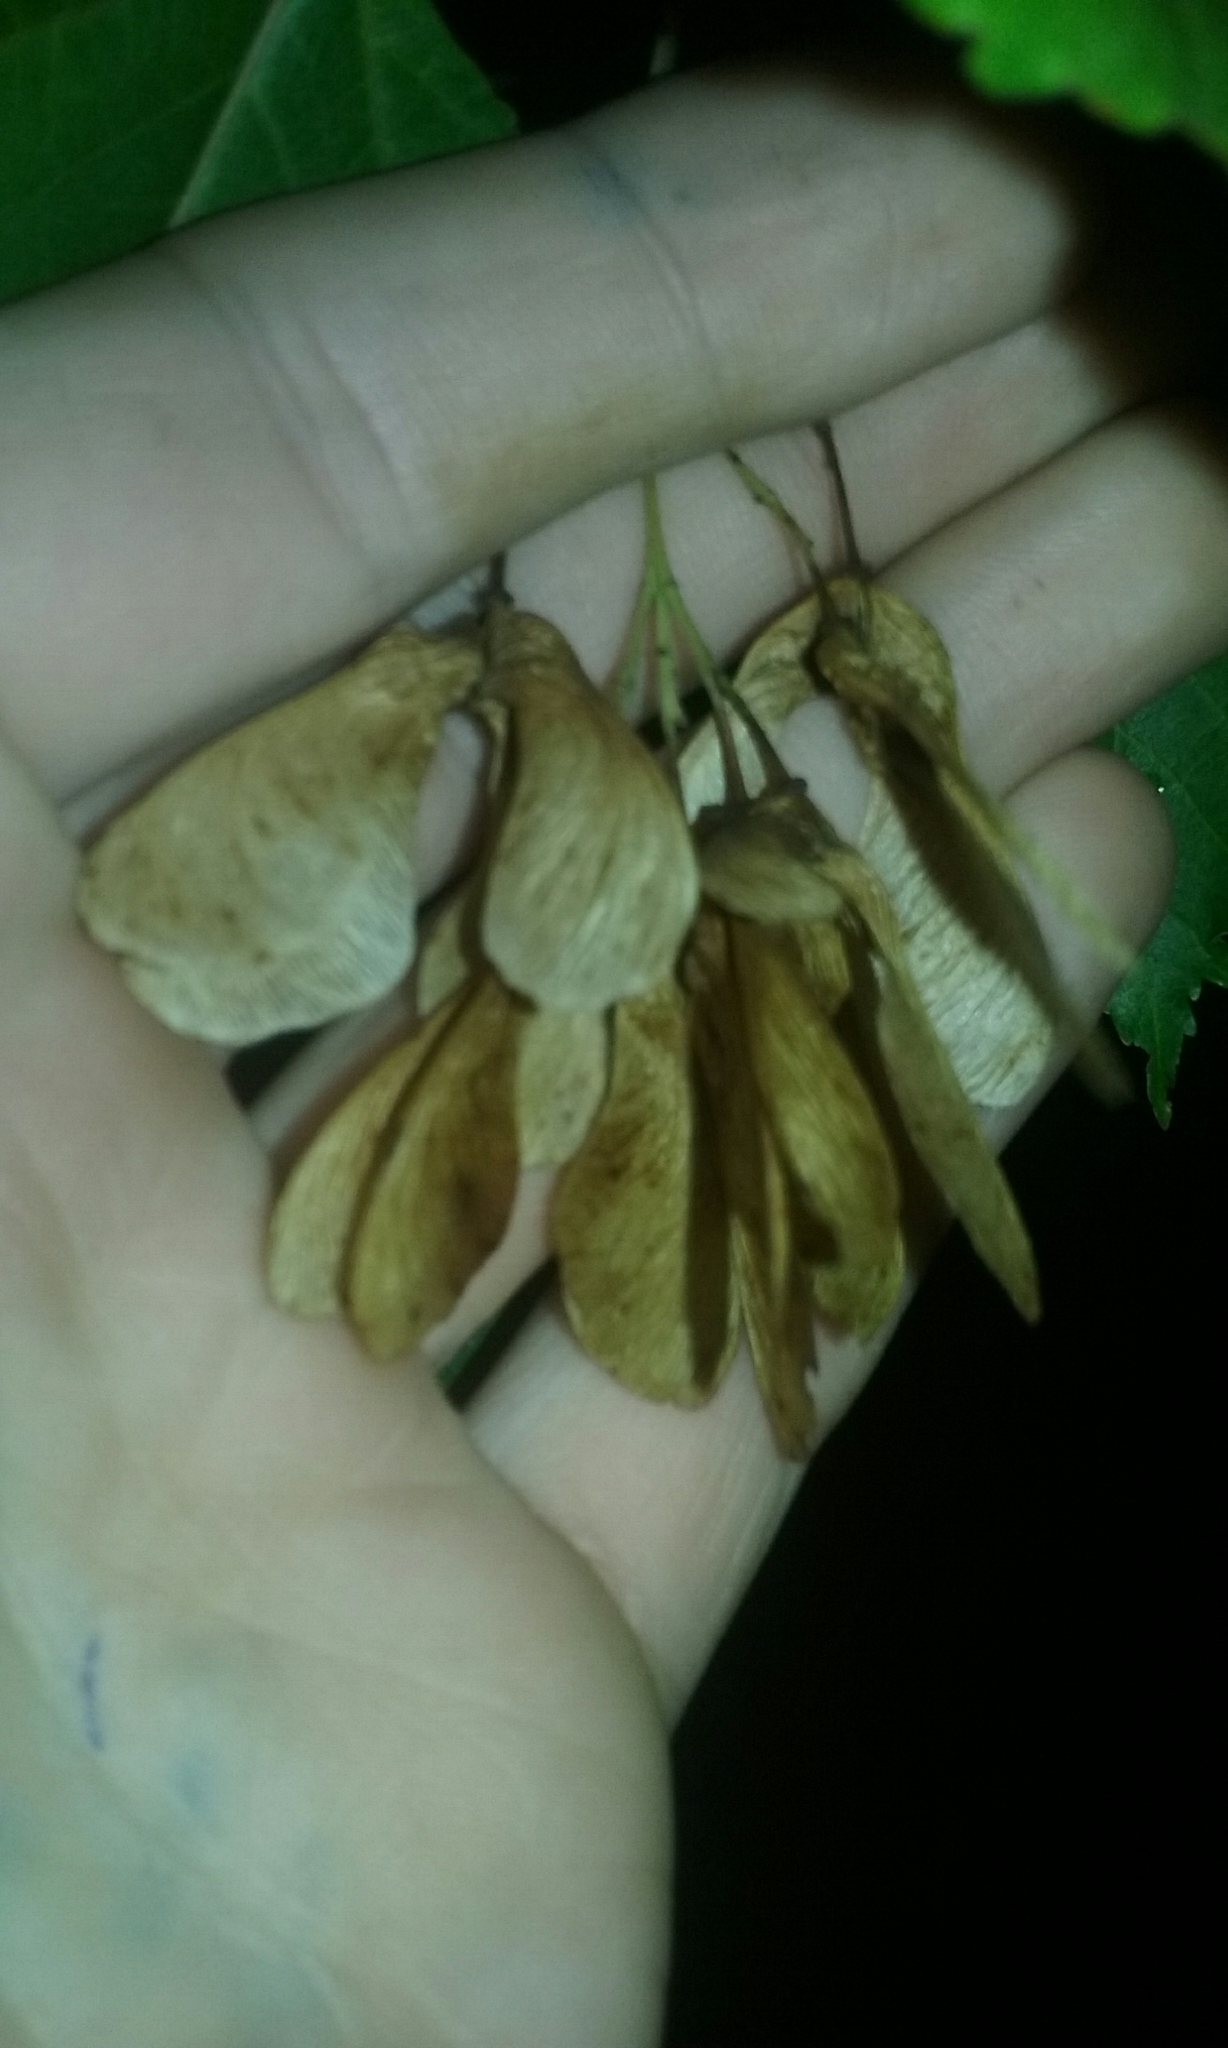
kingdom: Plantae
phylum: Tracheophyta
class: Magnoliopsida
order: Sapindales
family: Sapindaceae
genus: Acer
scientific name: Acer tataricum
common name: Tartar maple
